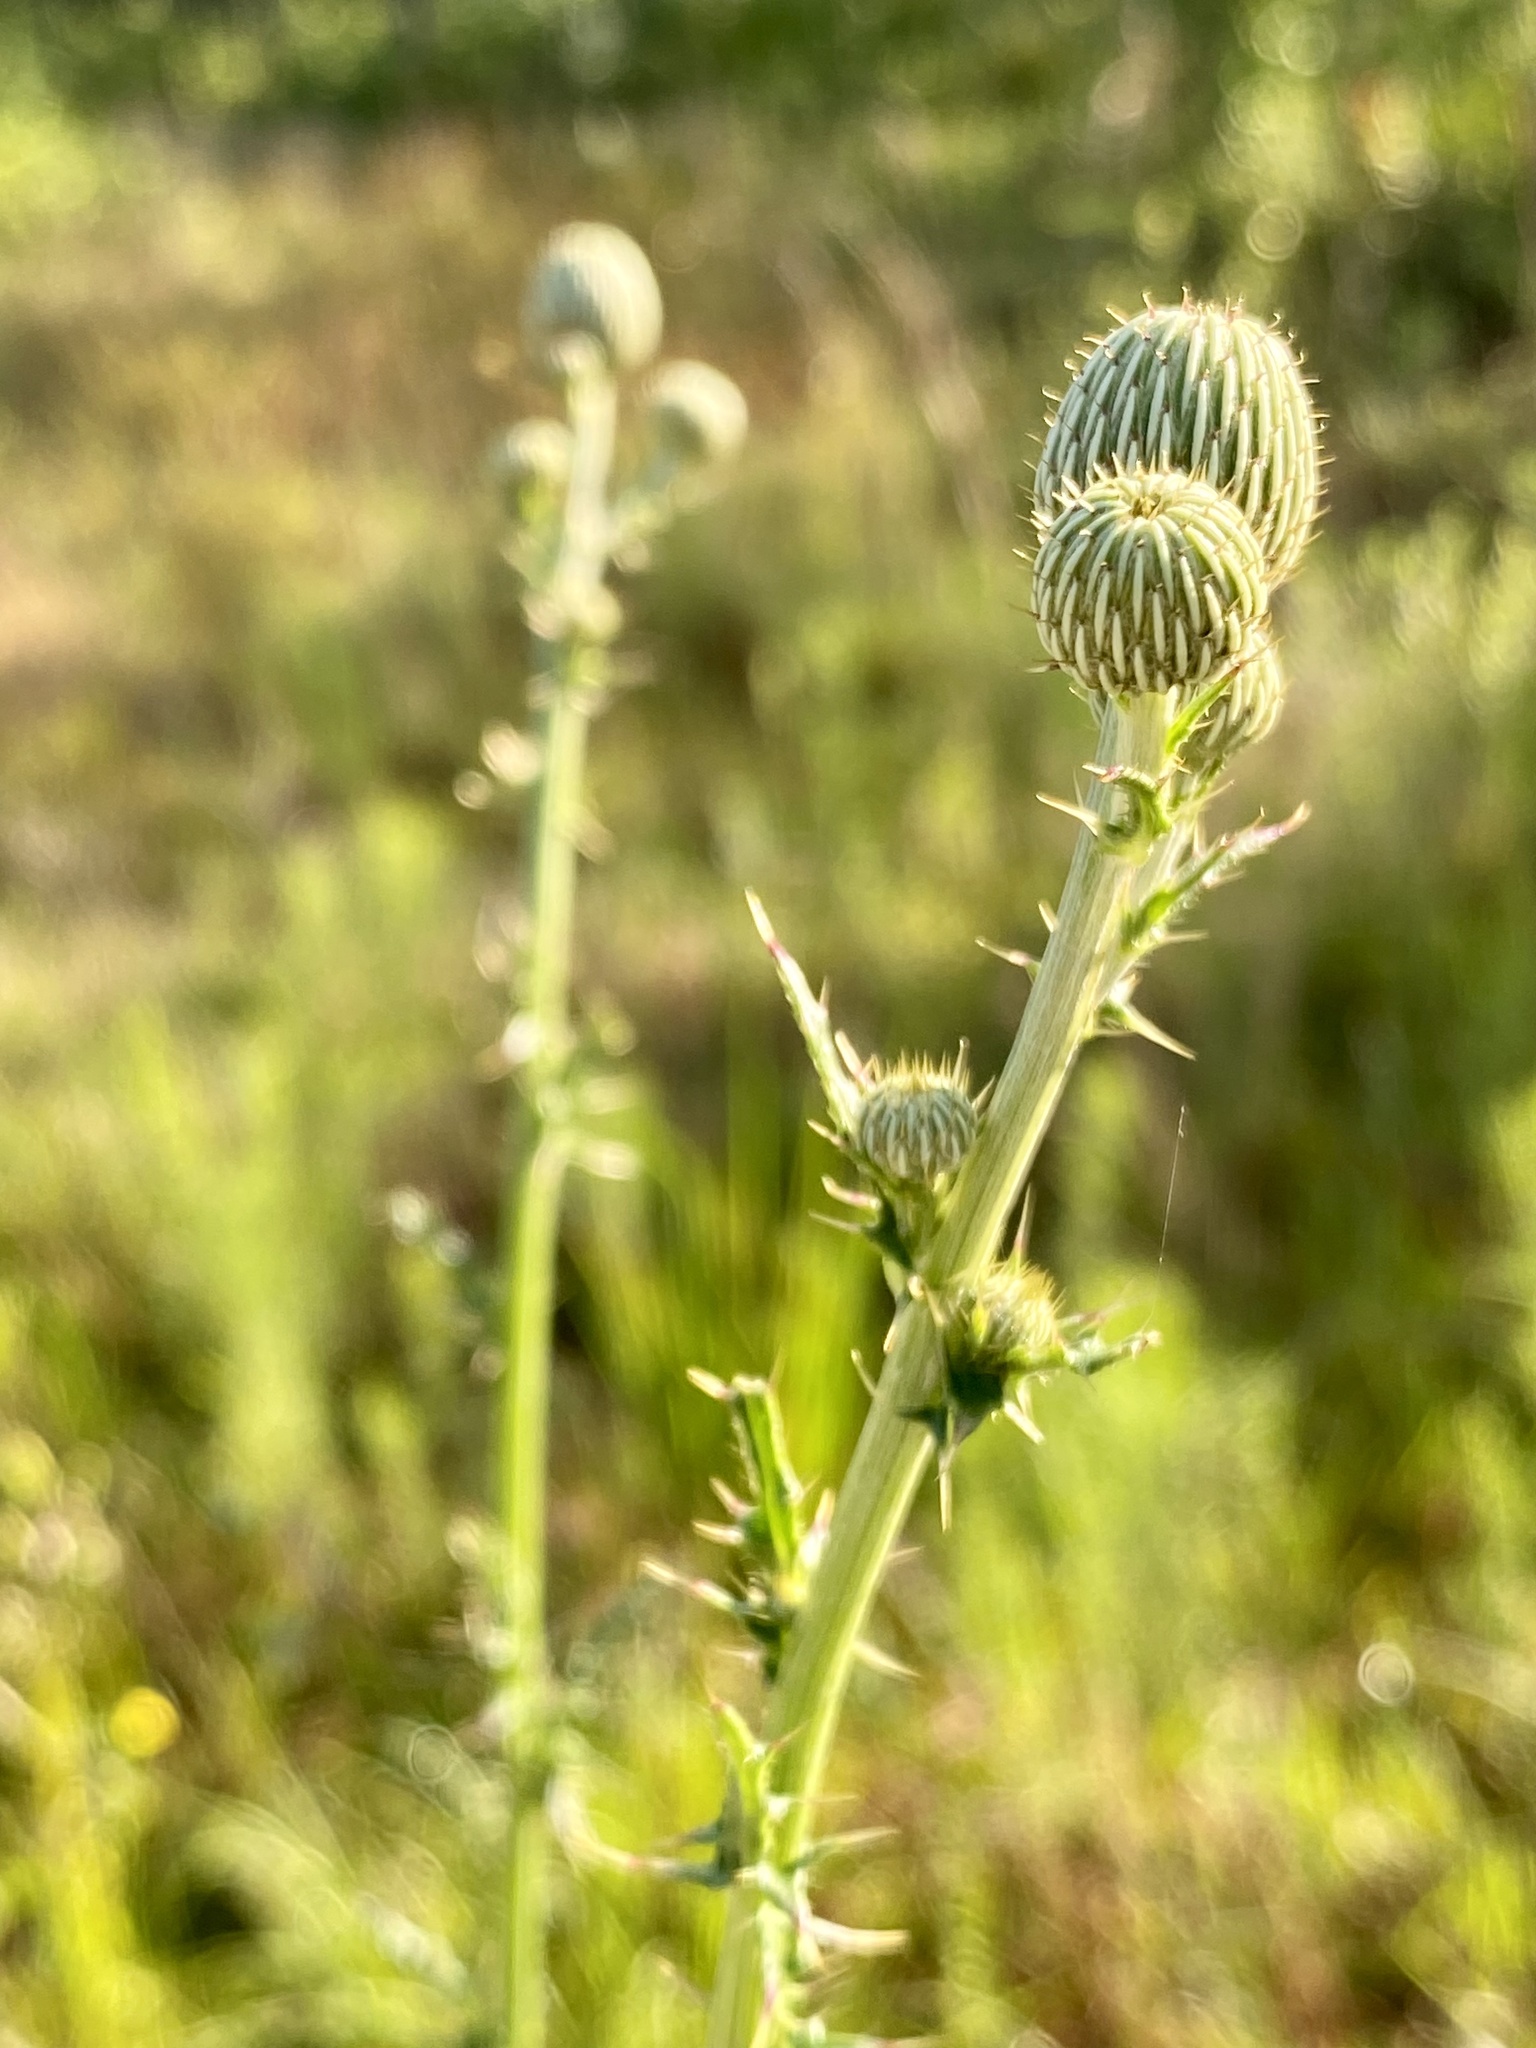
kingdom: Plantae
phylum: Tracheophyta
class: Magnoliopsida
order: Asterales
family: Asteraceae
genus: Cirsium
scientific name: Cirsium nuttalii
